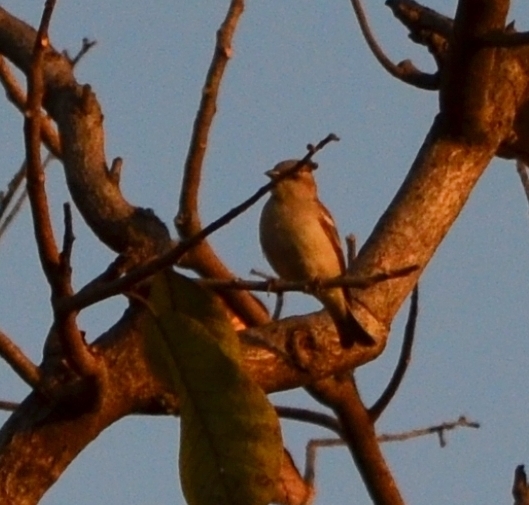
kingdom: Animalia
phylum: Chordata
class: Aves
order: Passeriformes
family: Passeridae
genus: Gymnoris
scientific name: Gymnoris xanthocollis
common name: Yellow-throated sparrow
